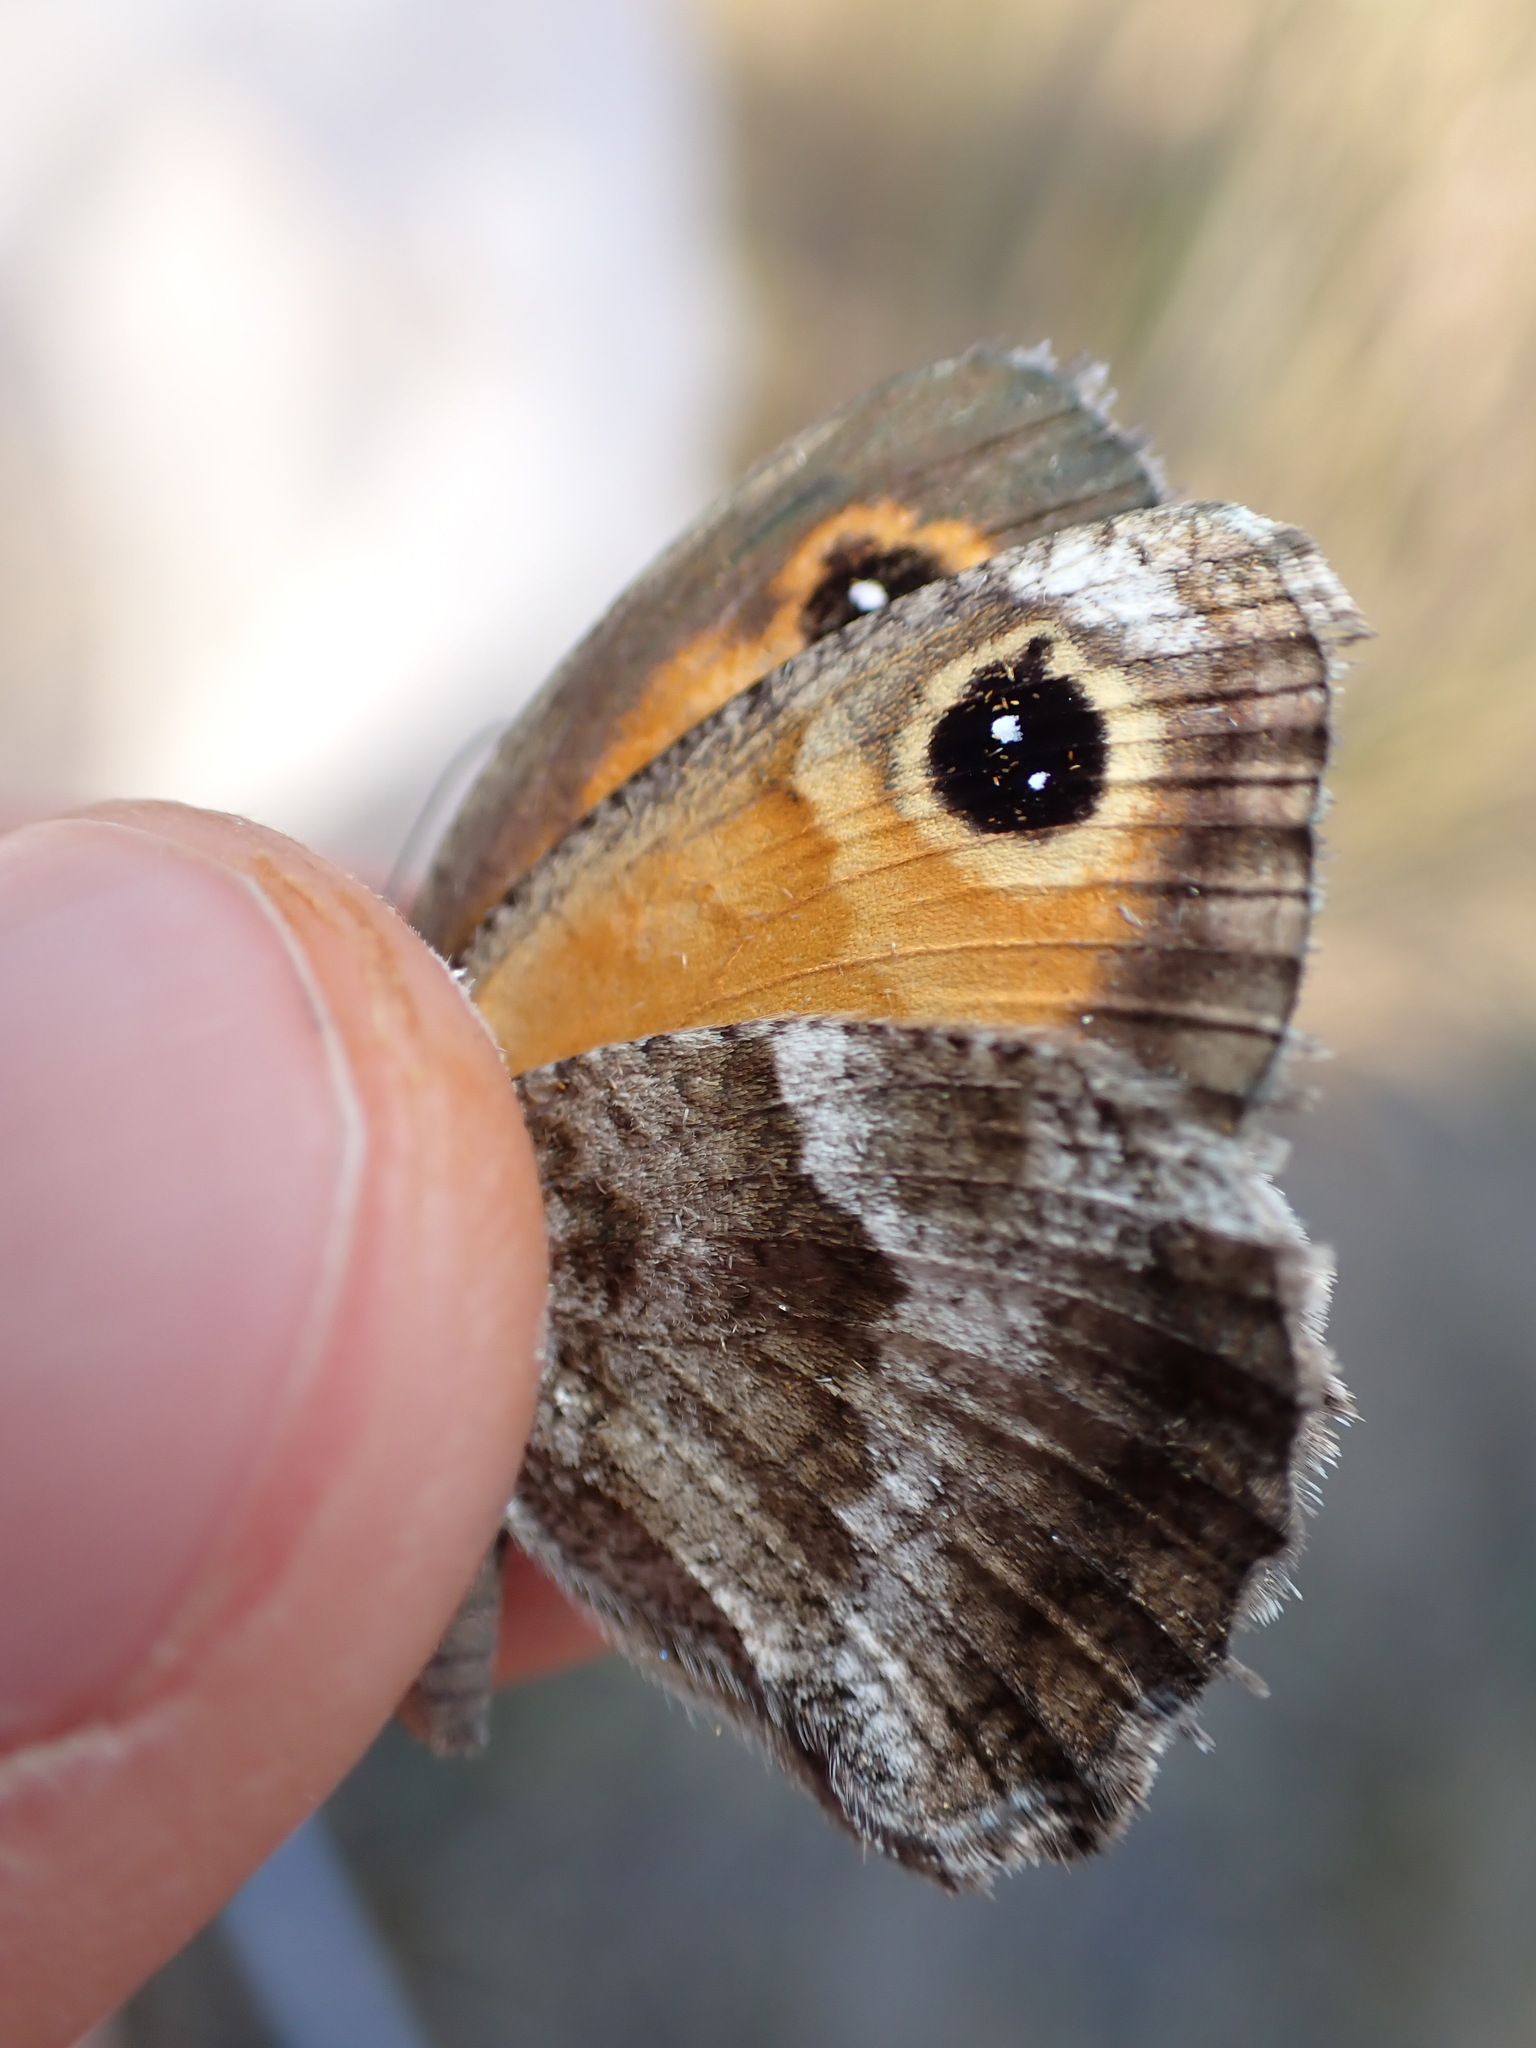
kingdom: Animalia
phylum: Arthropoda
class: Insecta
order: Lepidoptera
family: Nymphalidae
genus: Pyronia
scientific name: Pyronia cecilia
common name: Southern gatekeeper
